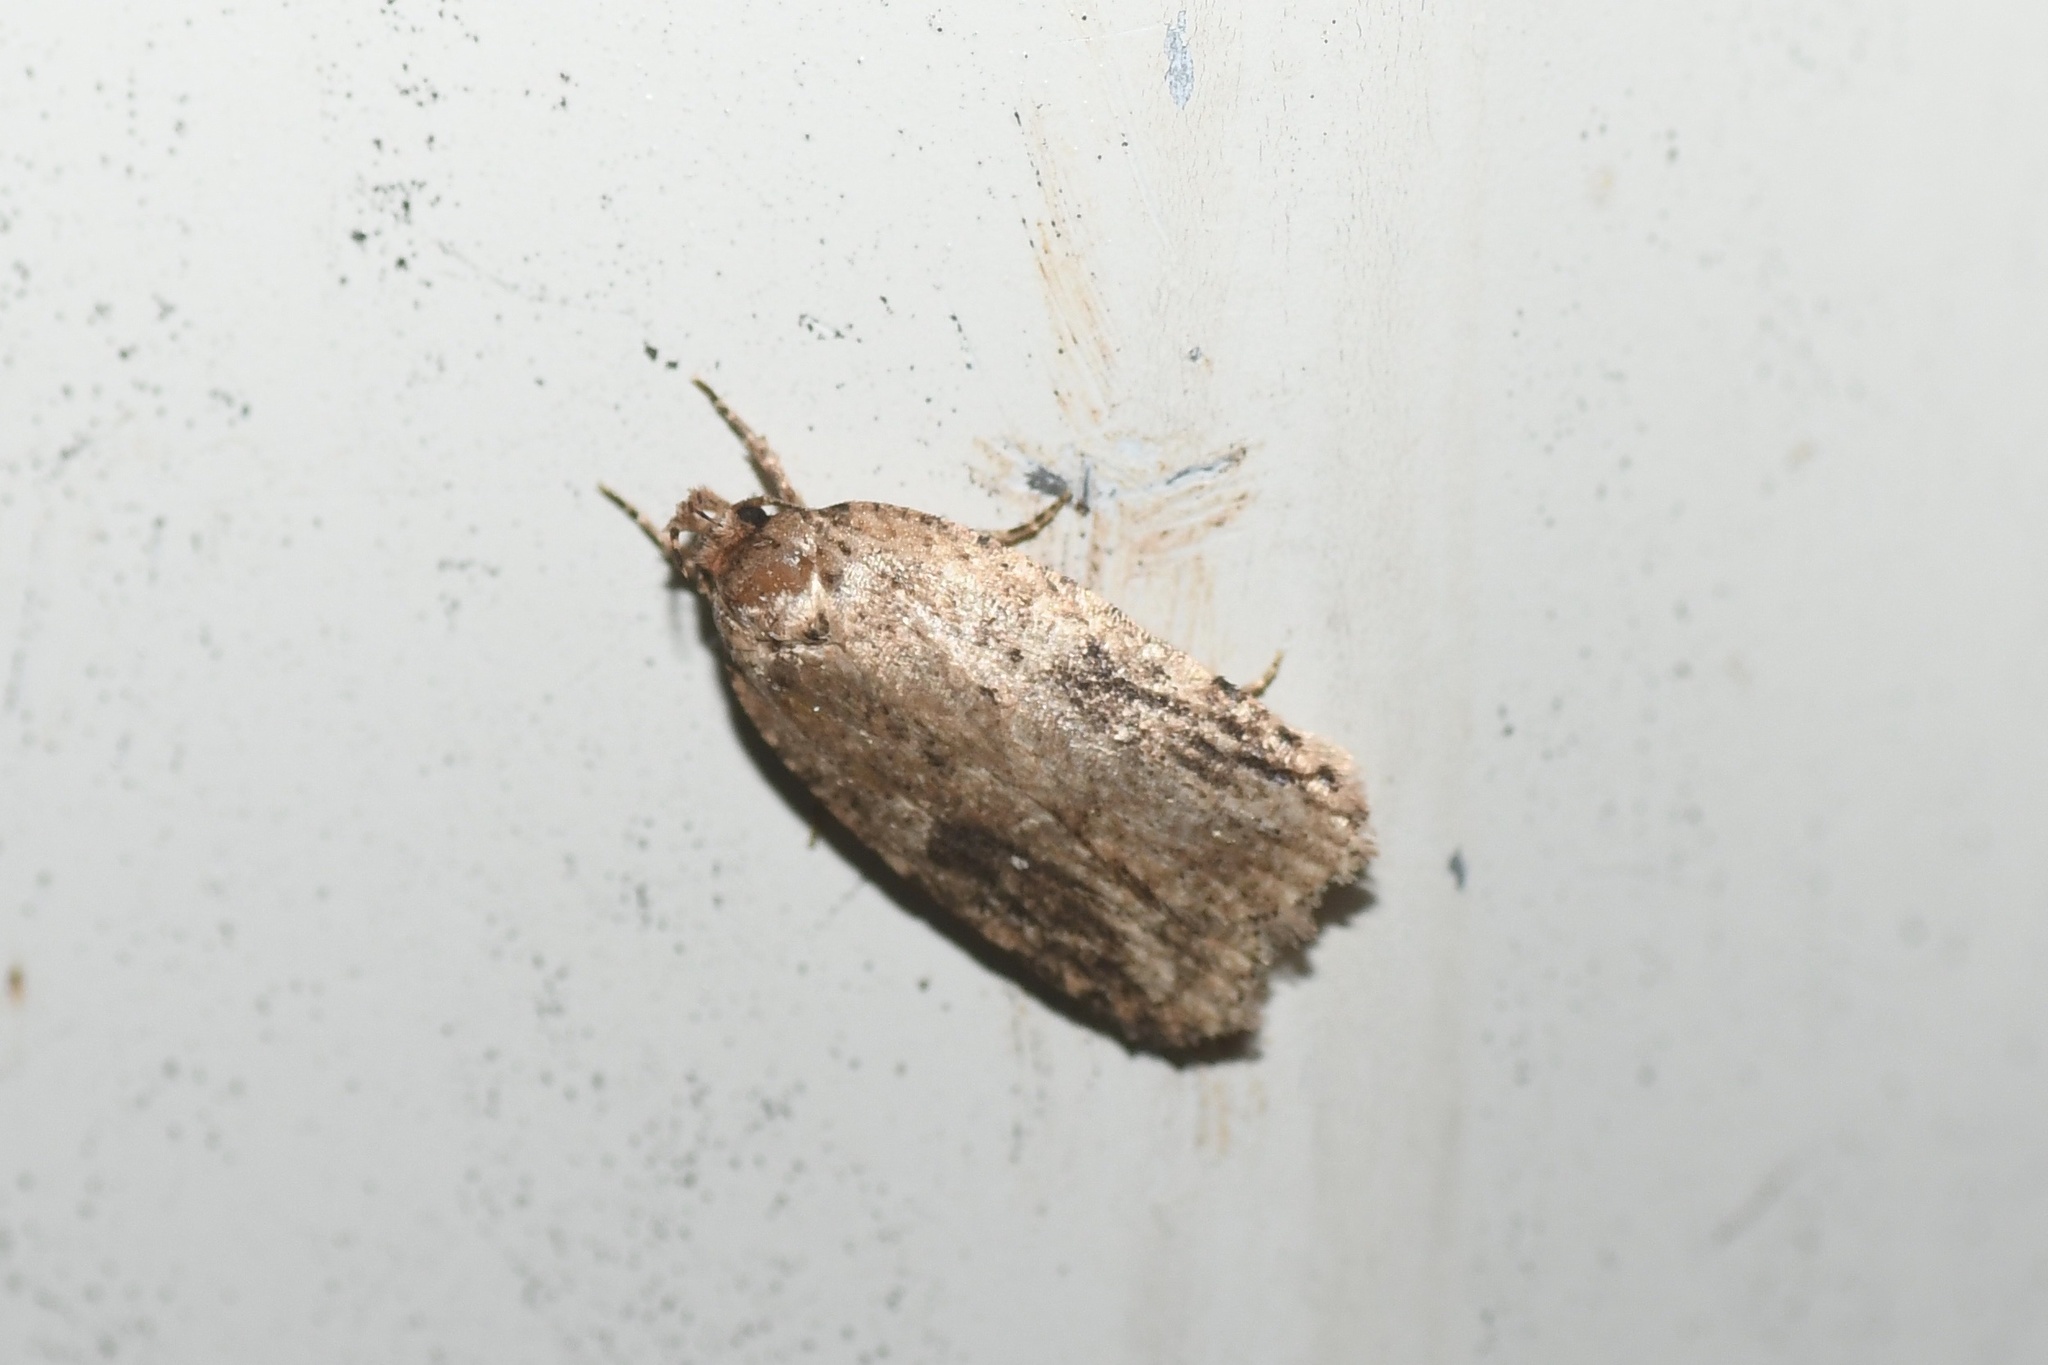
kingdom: Animalia
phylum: Arthropoda
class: Insecta
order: Lepidoptera
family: Depressariidae
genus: Agonopterix
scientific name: Agonopterix pulvipennella
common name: Goldenrod leafffolder
